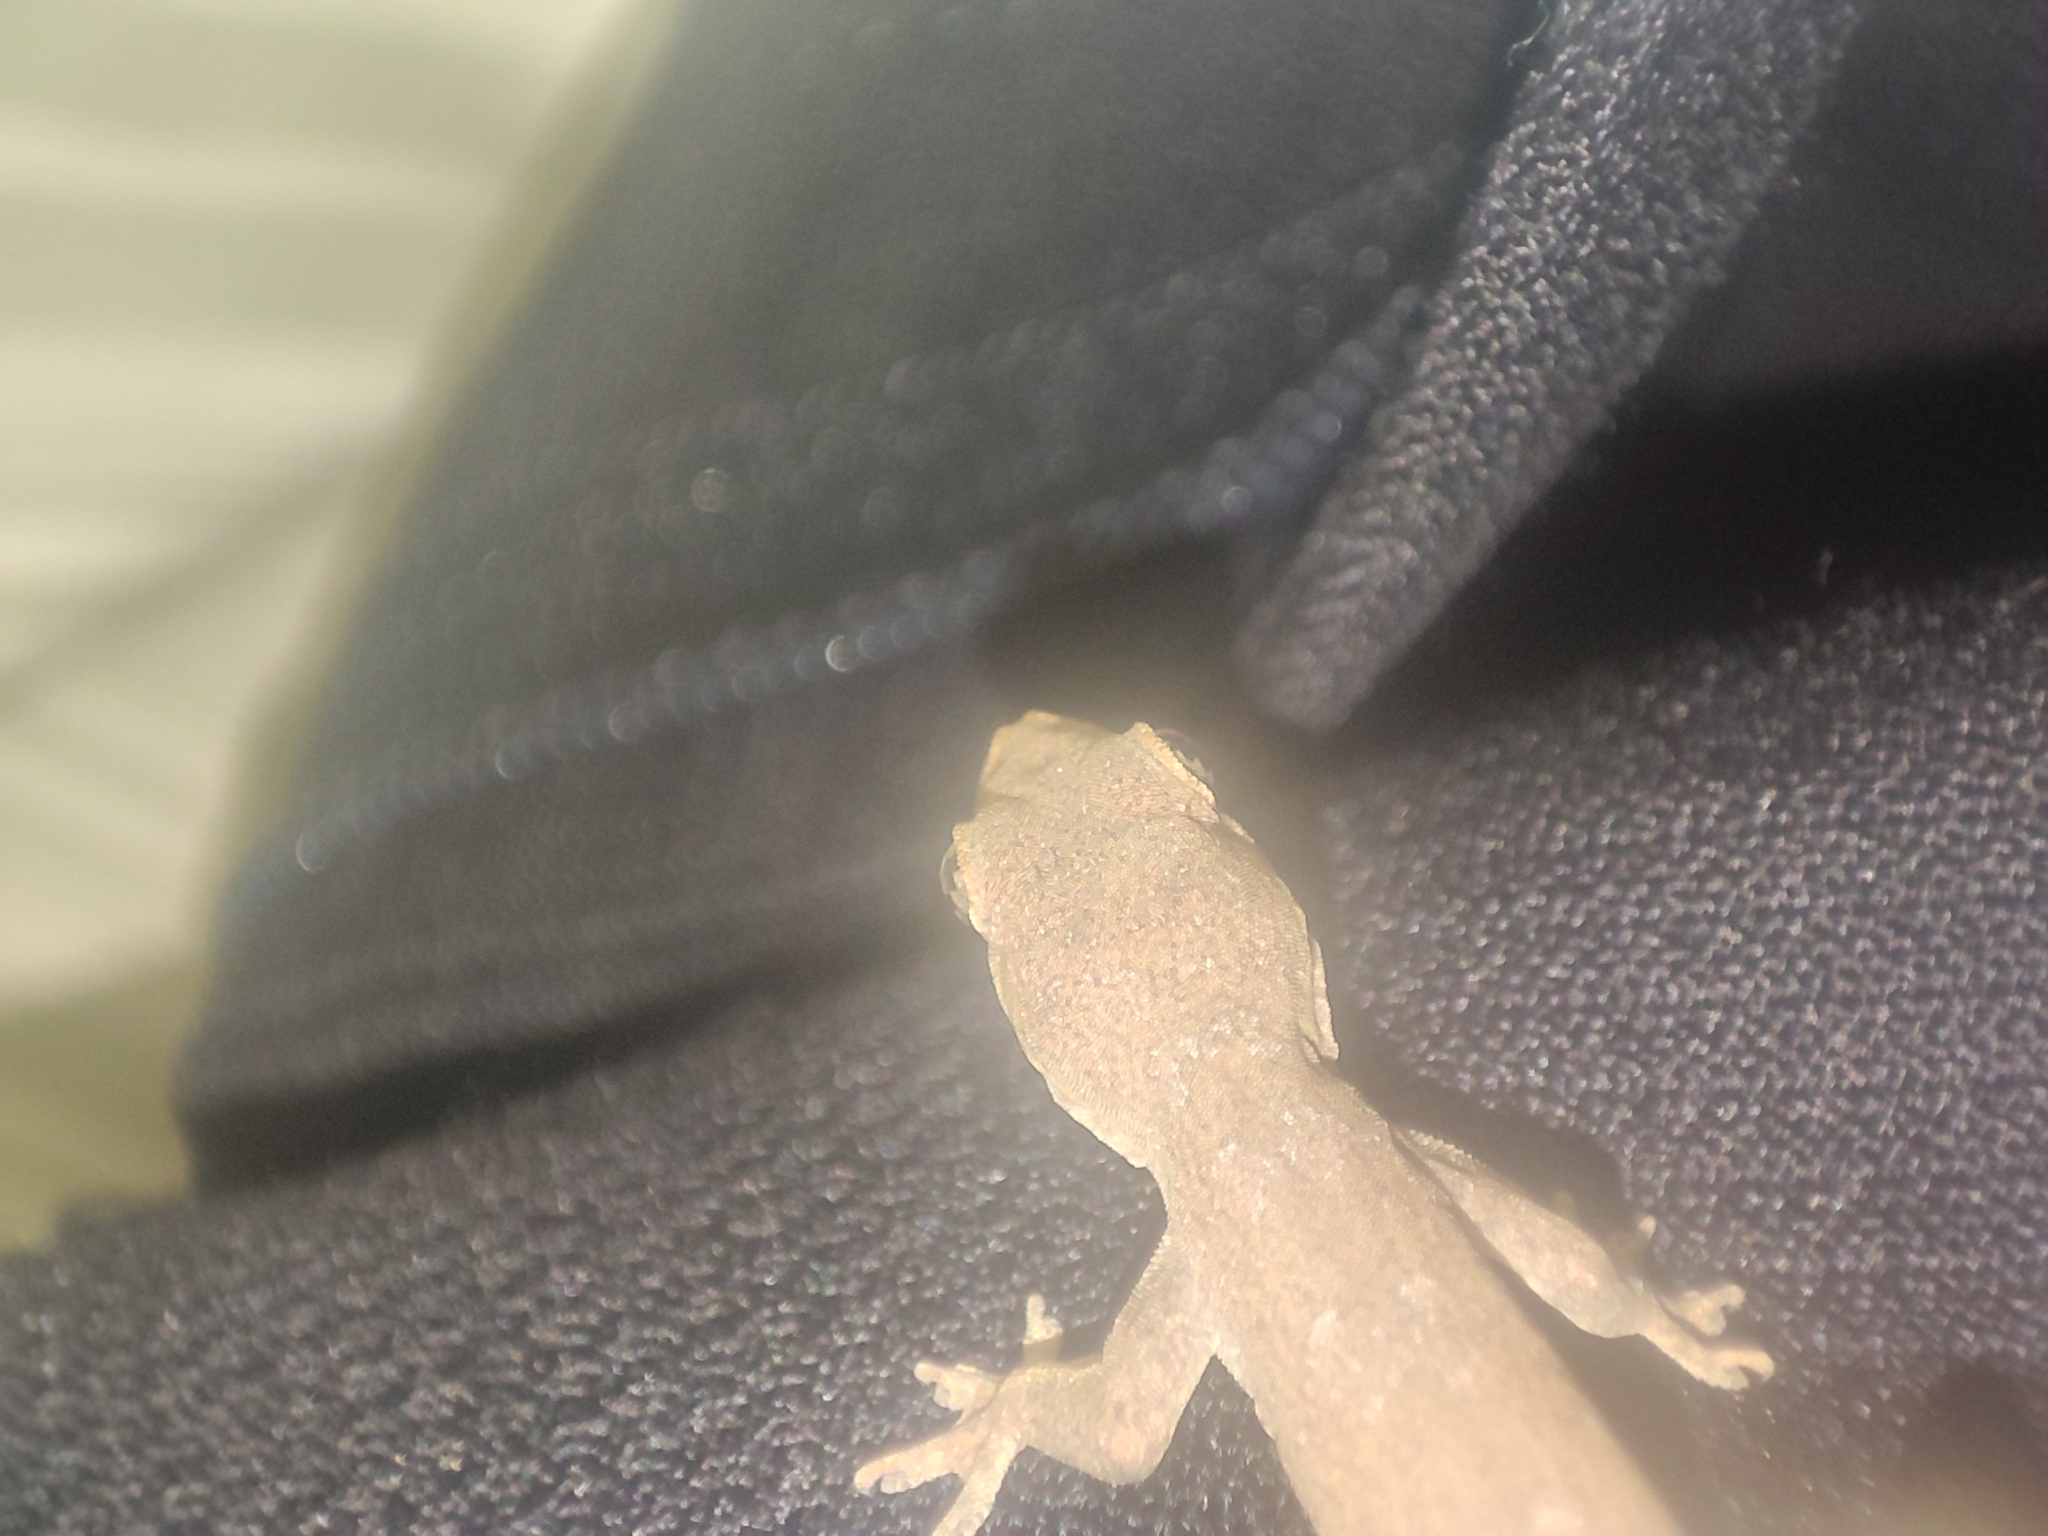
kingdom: Animalia
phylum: Chordata
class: Squamata
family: Gekkonidae
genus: Hemidactylus
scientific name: Hemidactylus platyurus
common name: Flat-tailed house gecko
